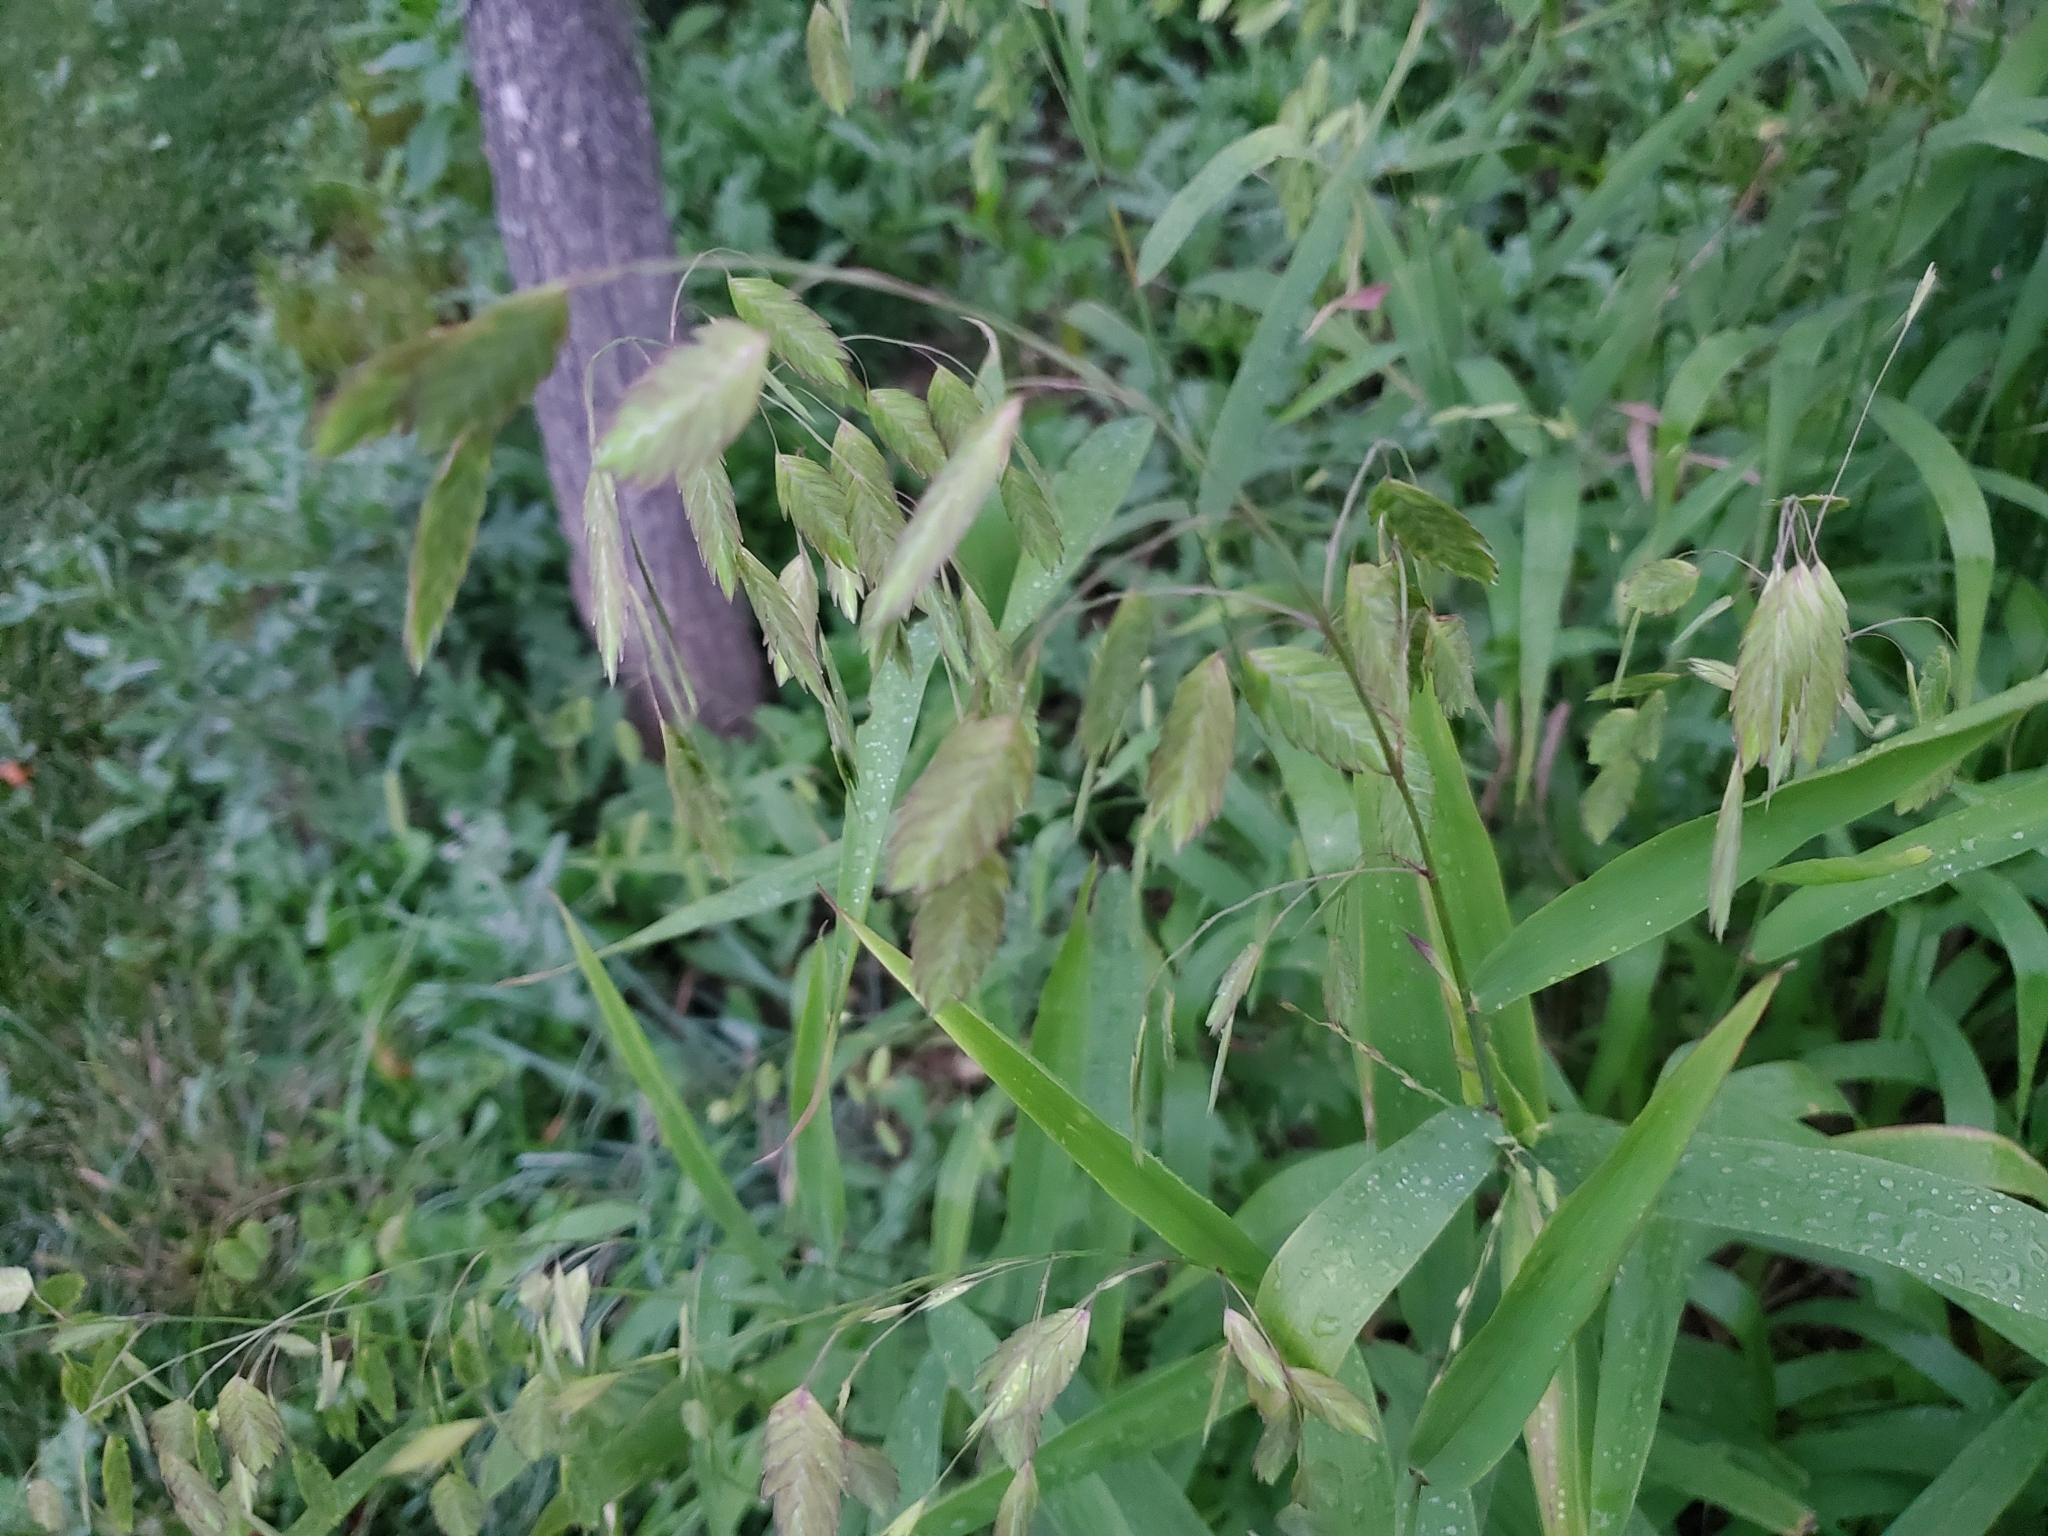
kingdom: Plantae
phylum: Tracheophyta
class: Liliopsida
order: Poales
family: Poaceae
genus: Chasmanthium
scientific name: Chasmanthium latifolium
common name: Broad-leaved chasmanthium
